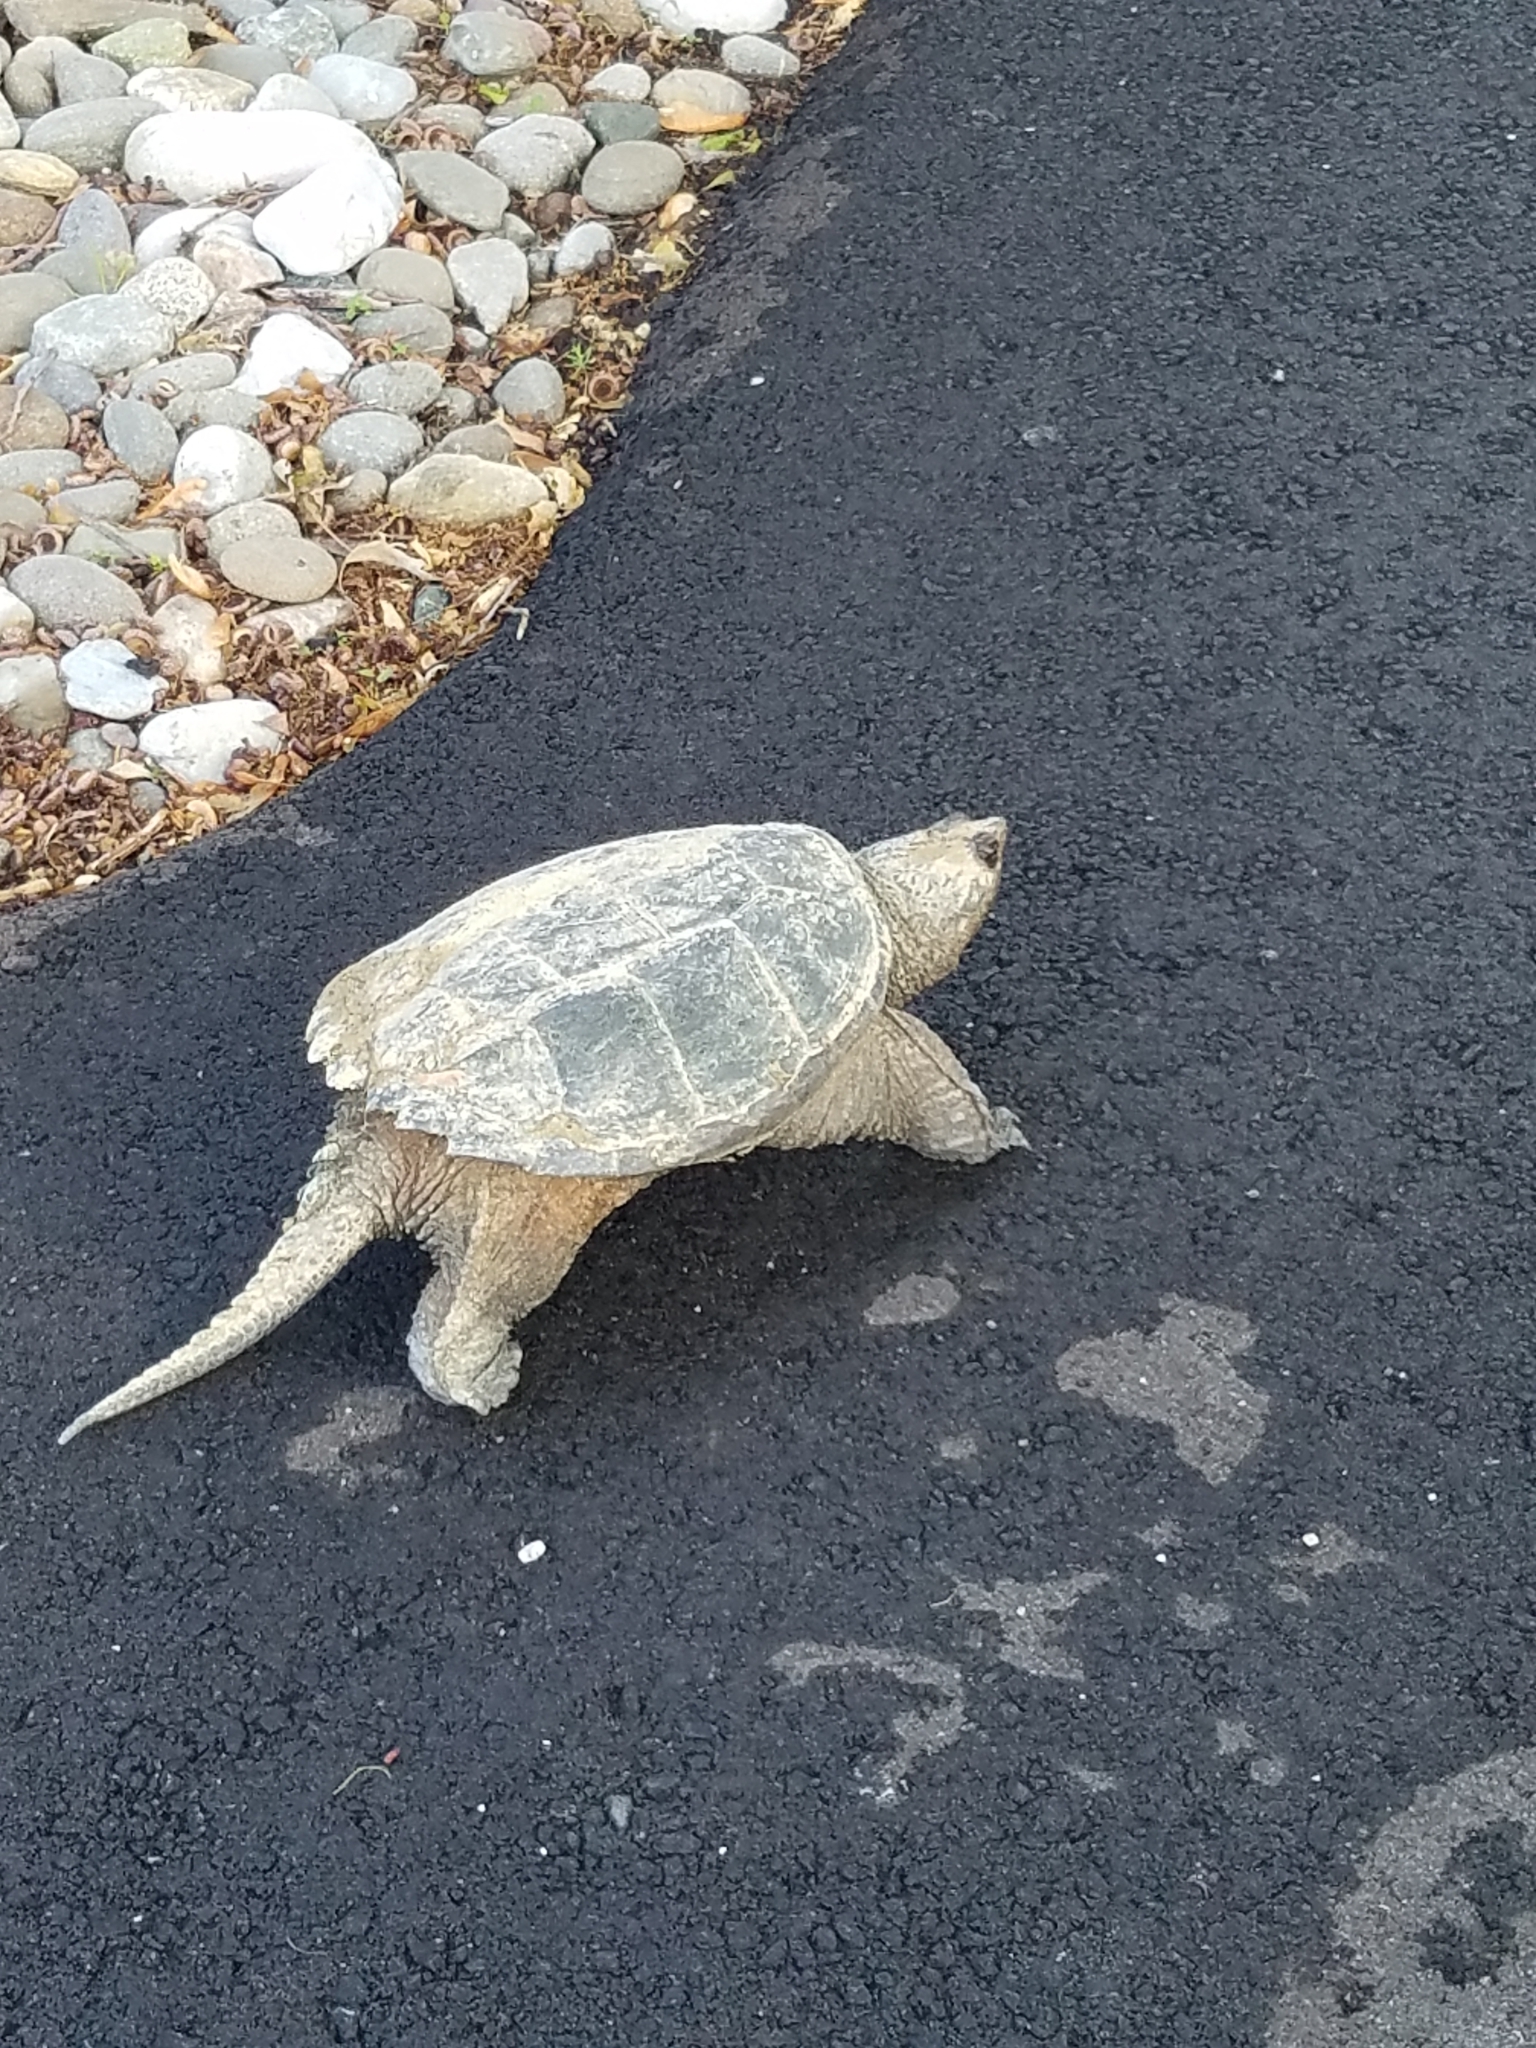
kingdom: Animalia
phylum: Chordata
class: Testudines
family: Chelydridae
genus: Chelydra
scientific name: Chelydra serpentina
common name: Common snapping turtle
